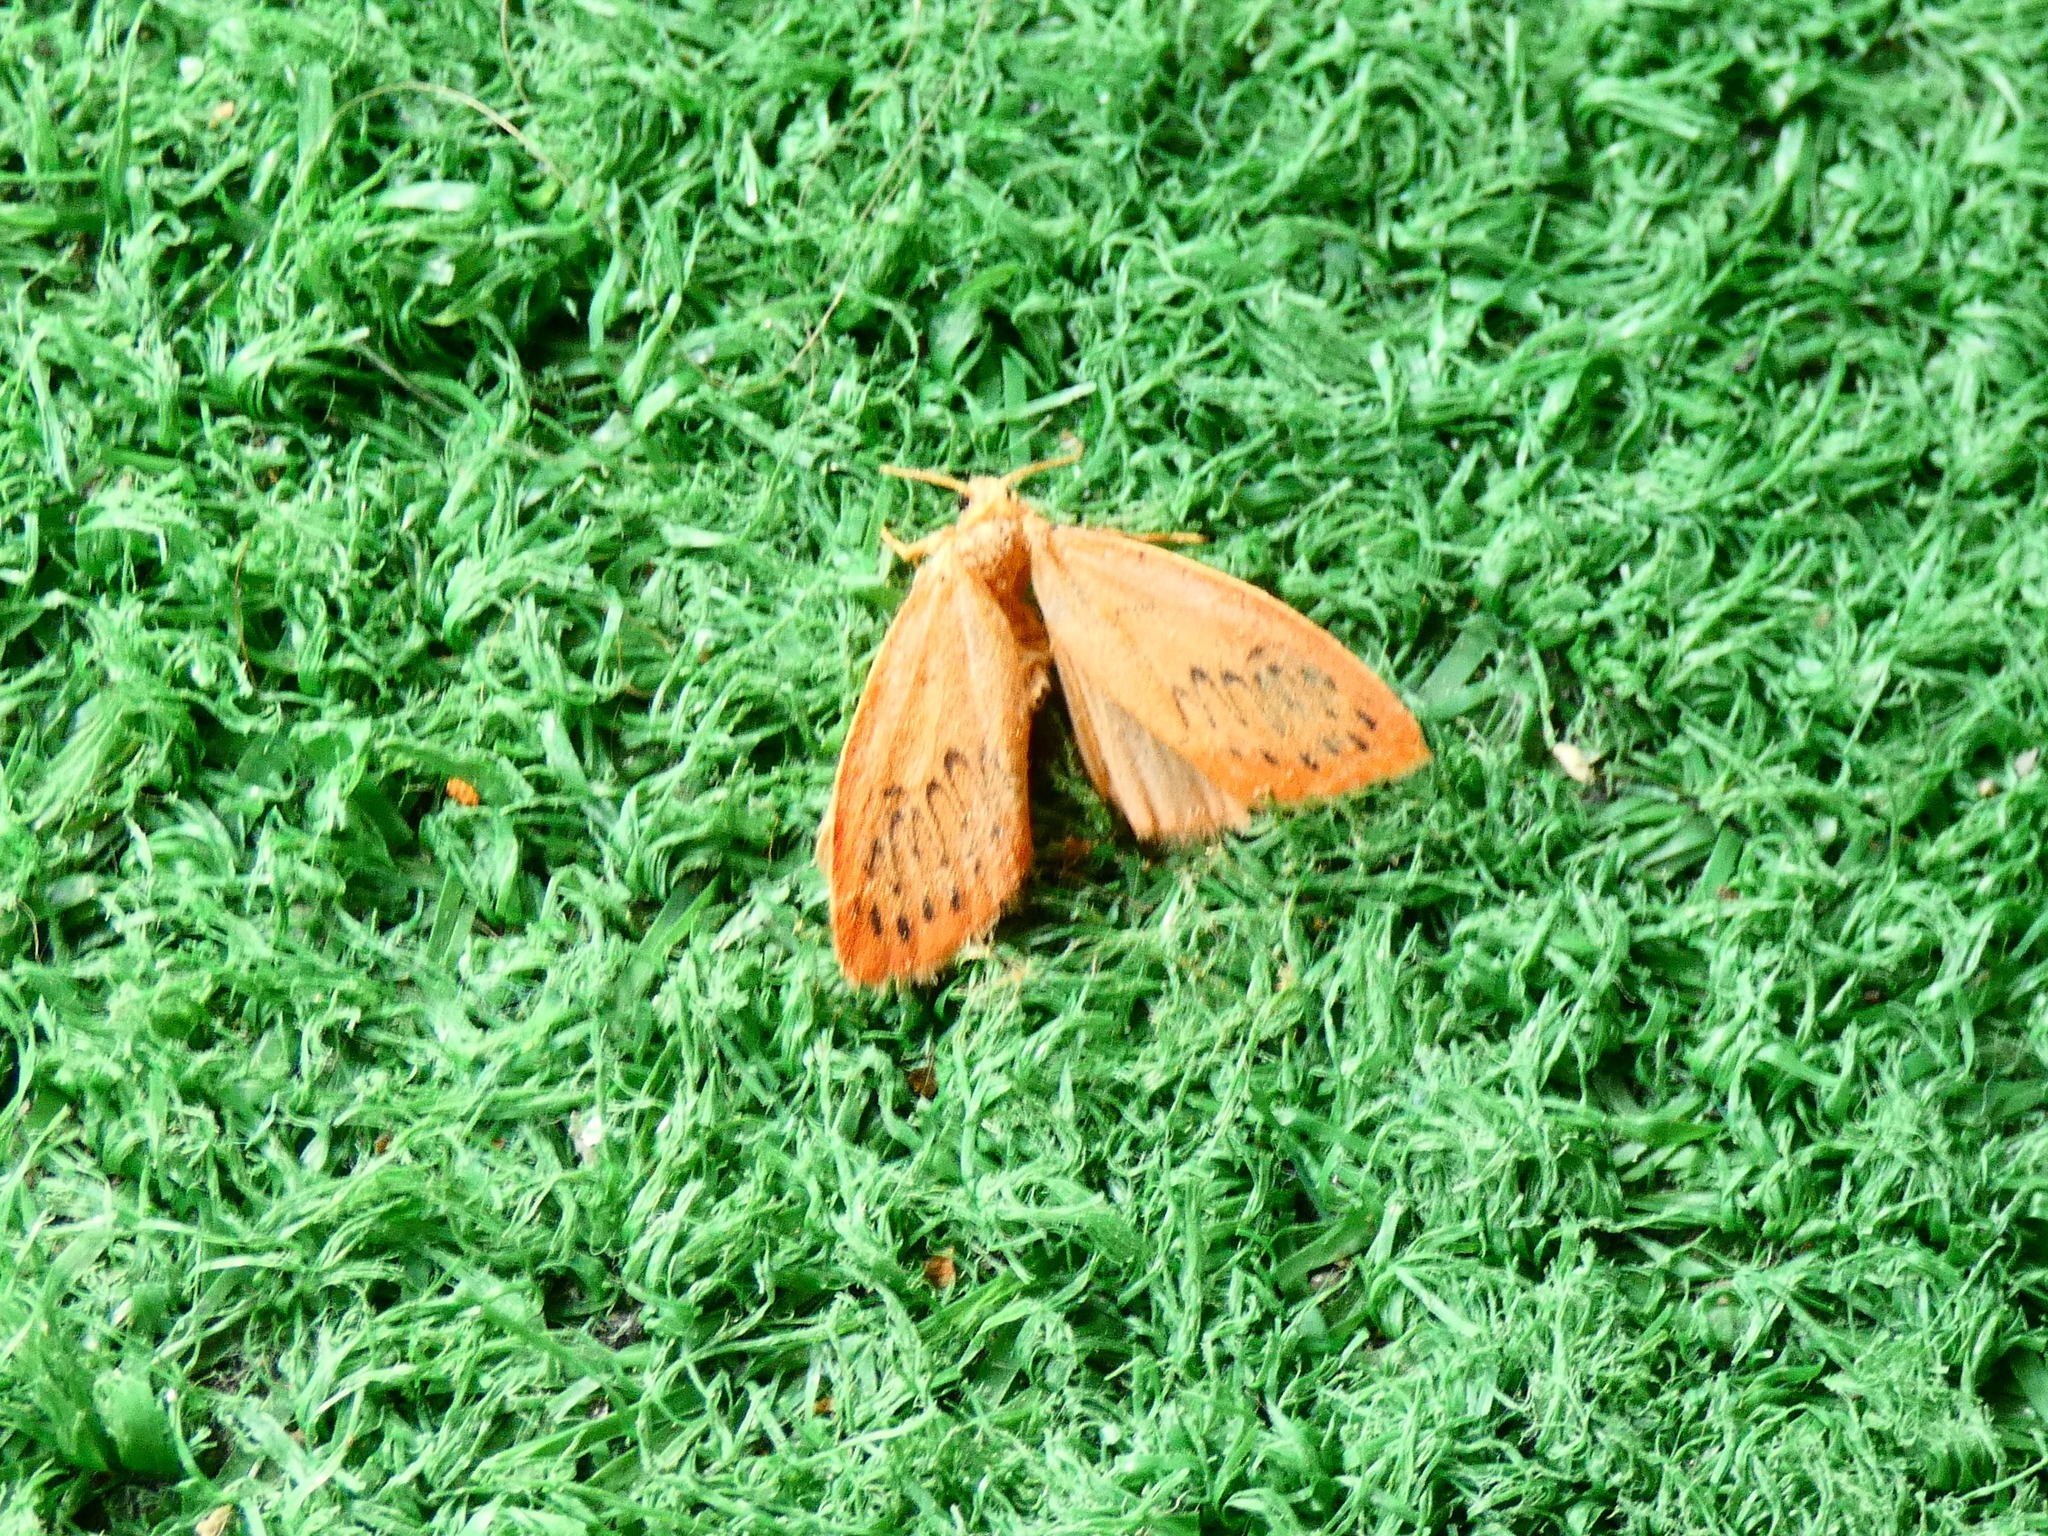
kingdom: Animalia
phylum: Arthropoda
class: Insecta
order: Lepidoptera
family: Erebidae
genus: Miltochrista
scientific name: Miltochrista miniata
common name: Rosy footman
